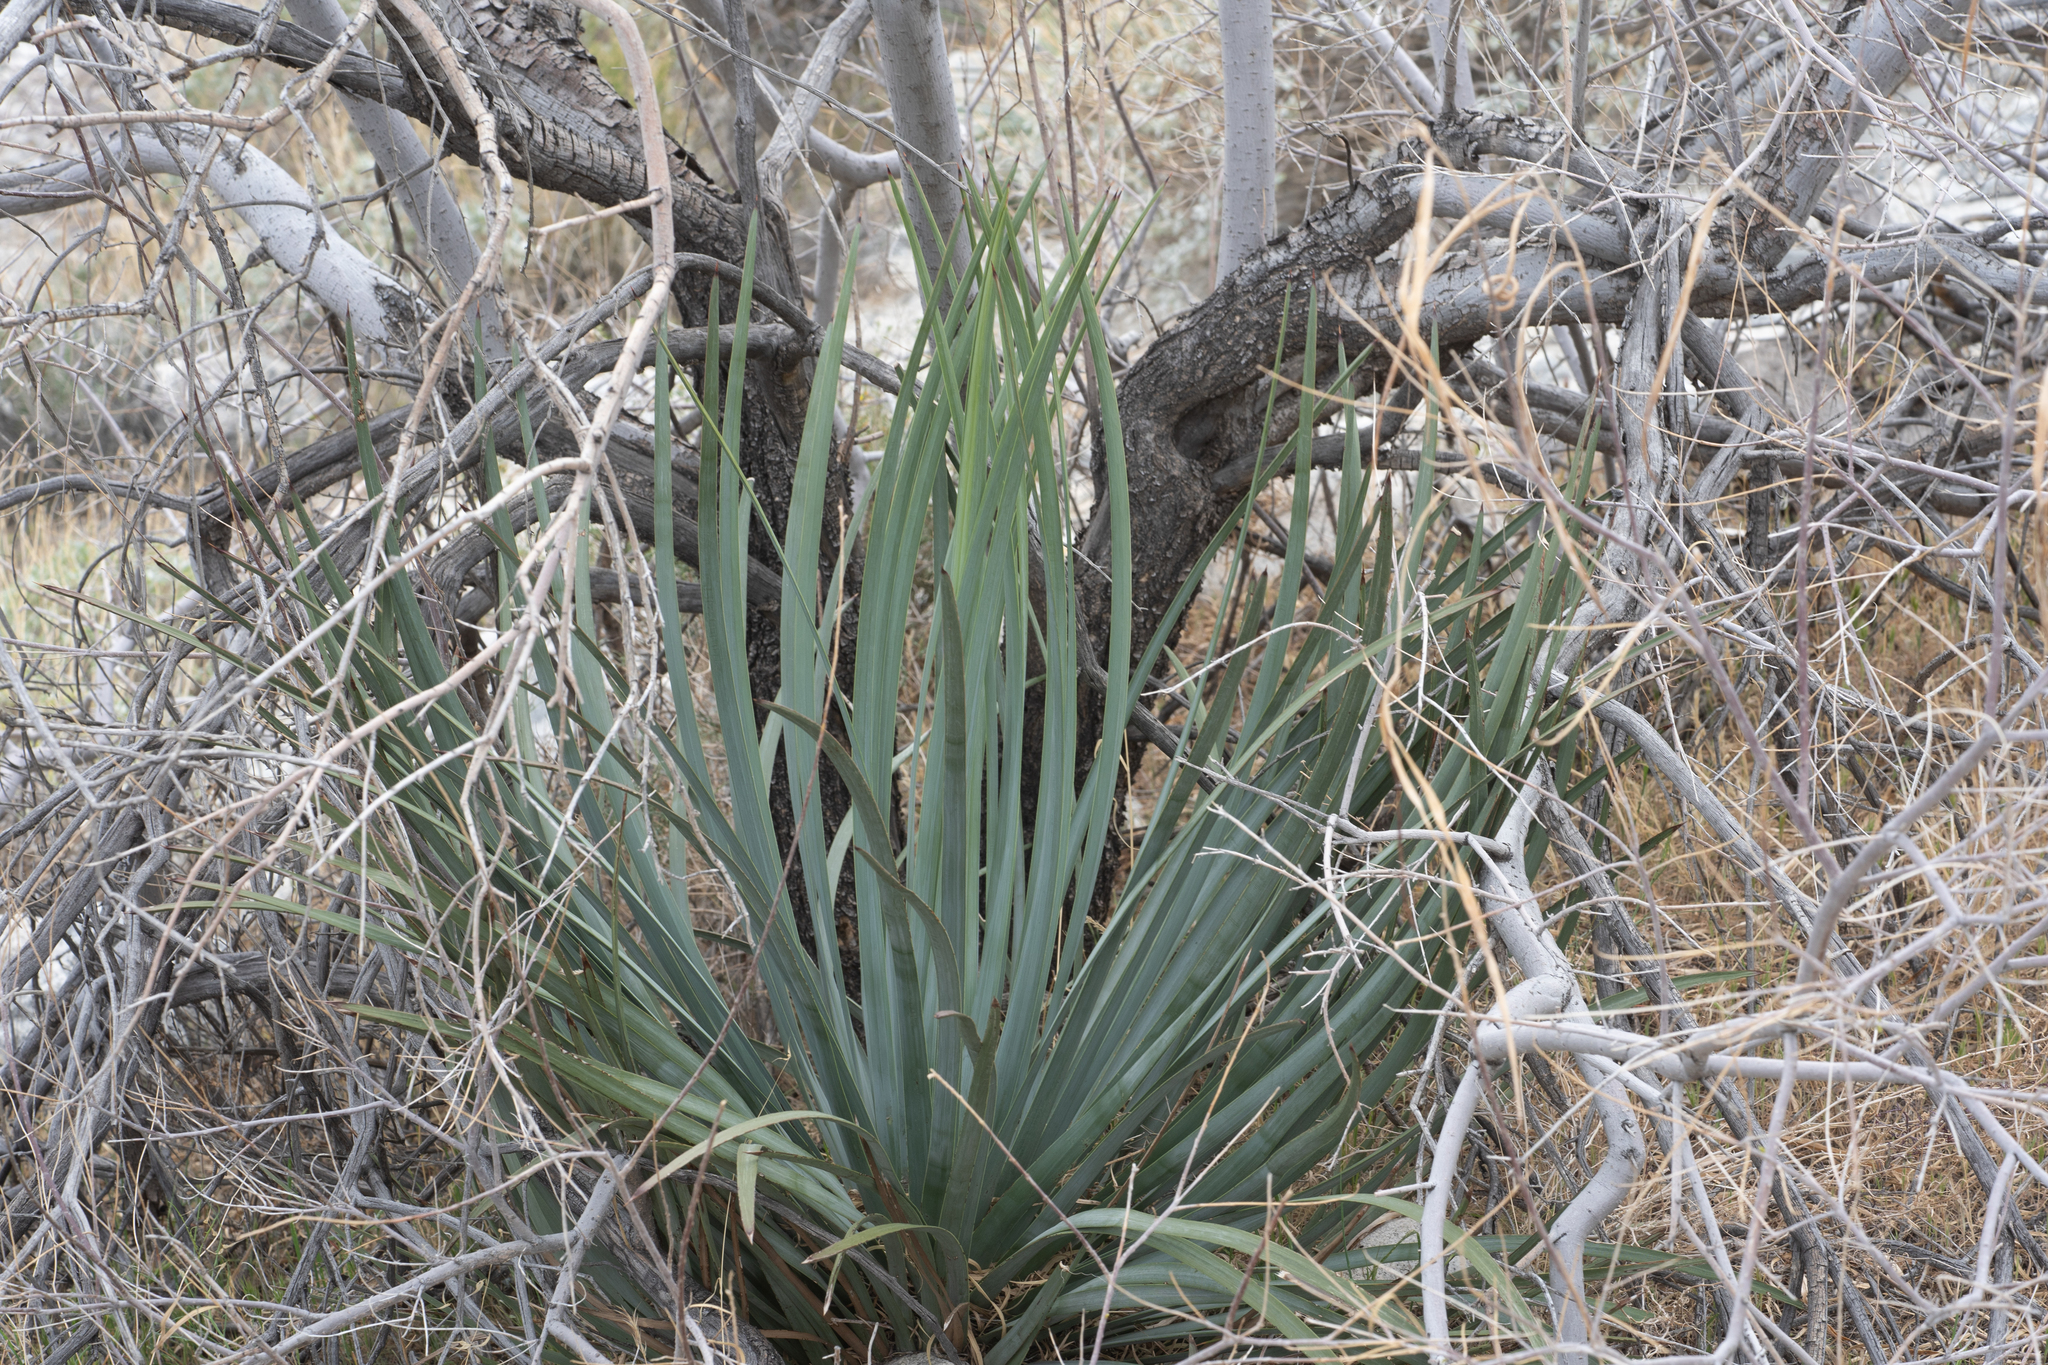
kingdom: Plantae
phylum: Tracheophyta
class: Liliopsida
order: Asparagales
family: Asparagaceae
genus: Hesperoyucca
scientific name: Hesperoyucca whipplei
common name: Our lord's-candle
